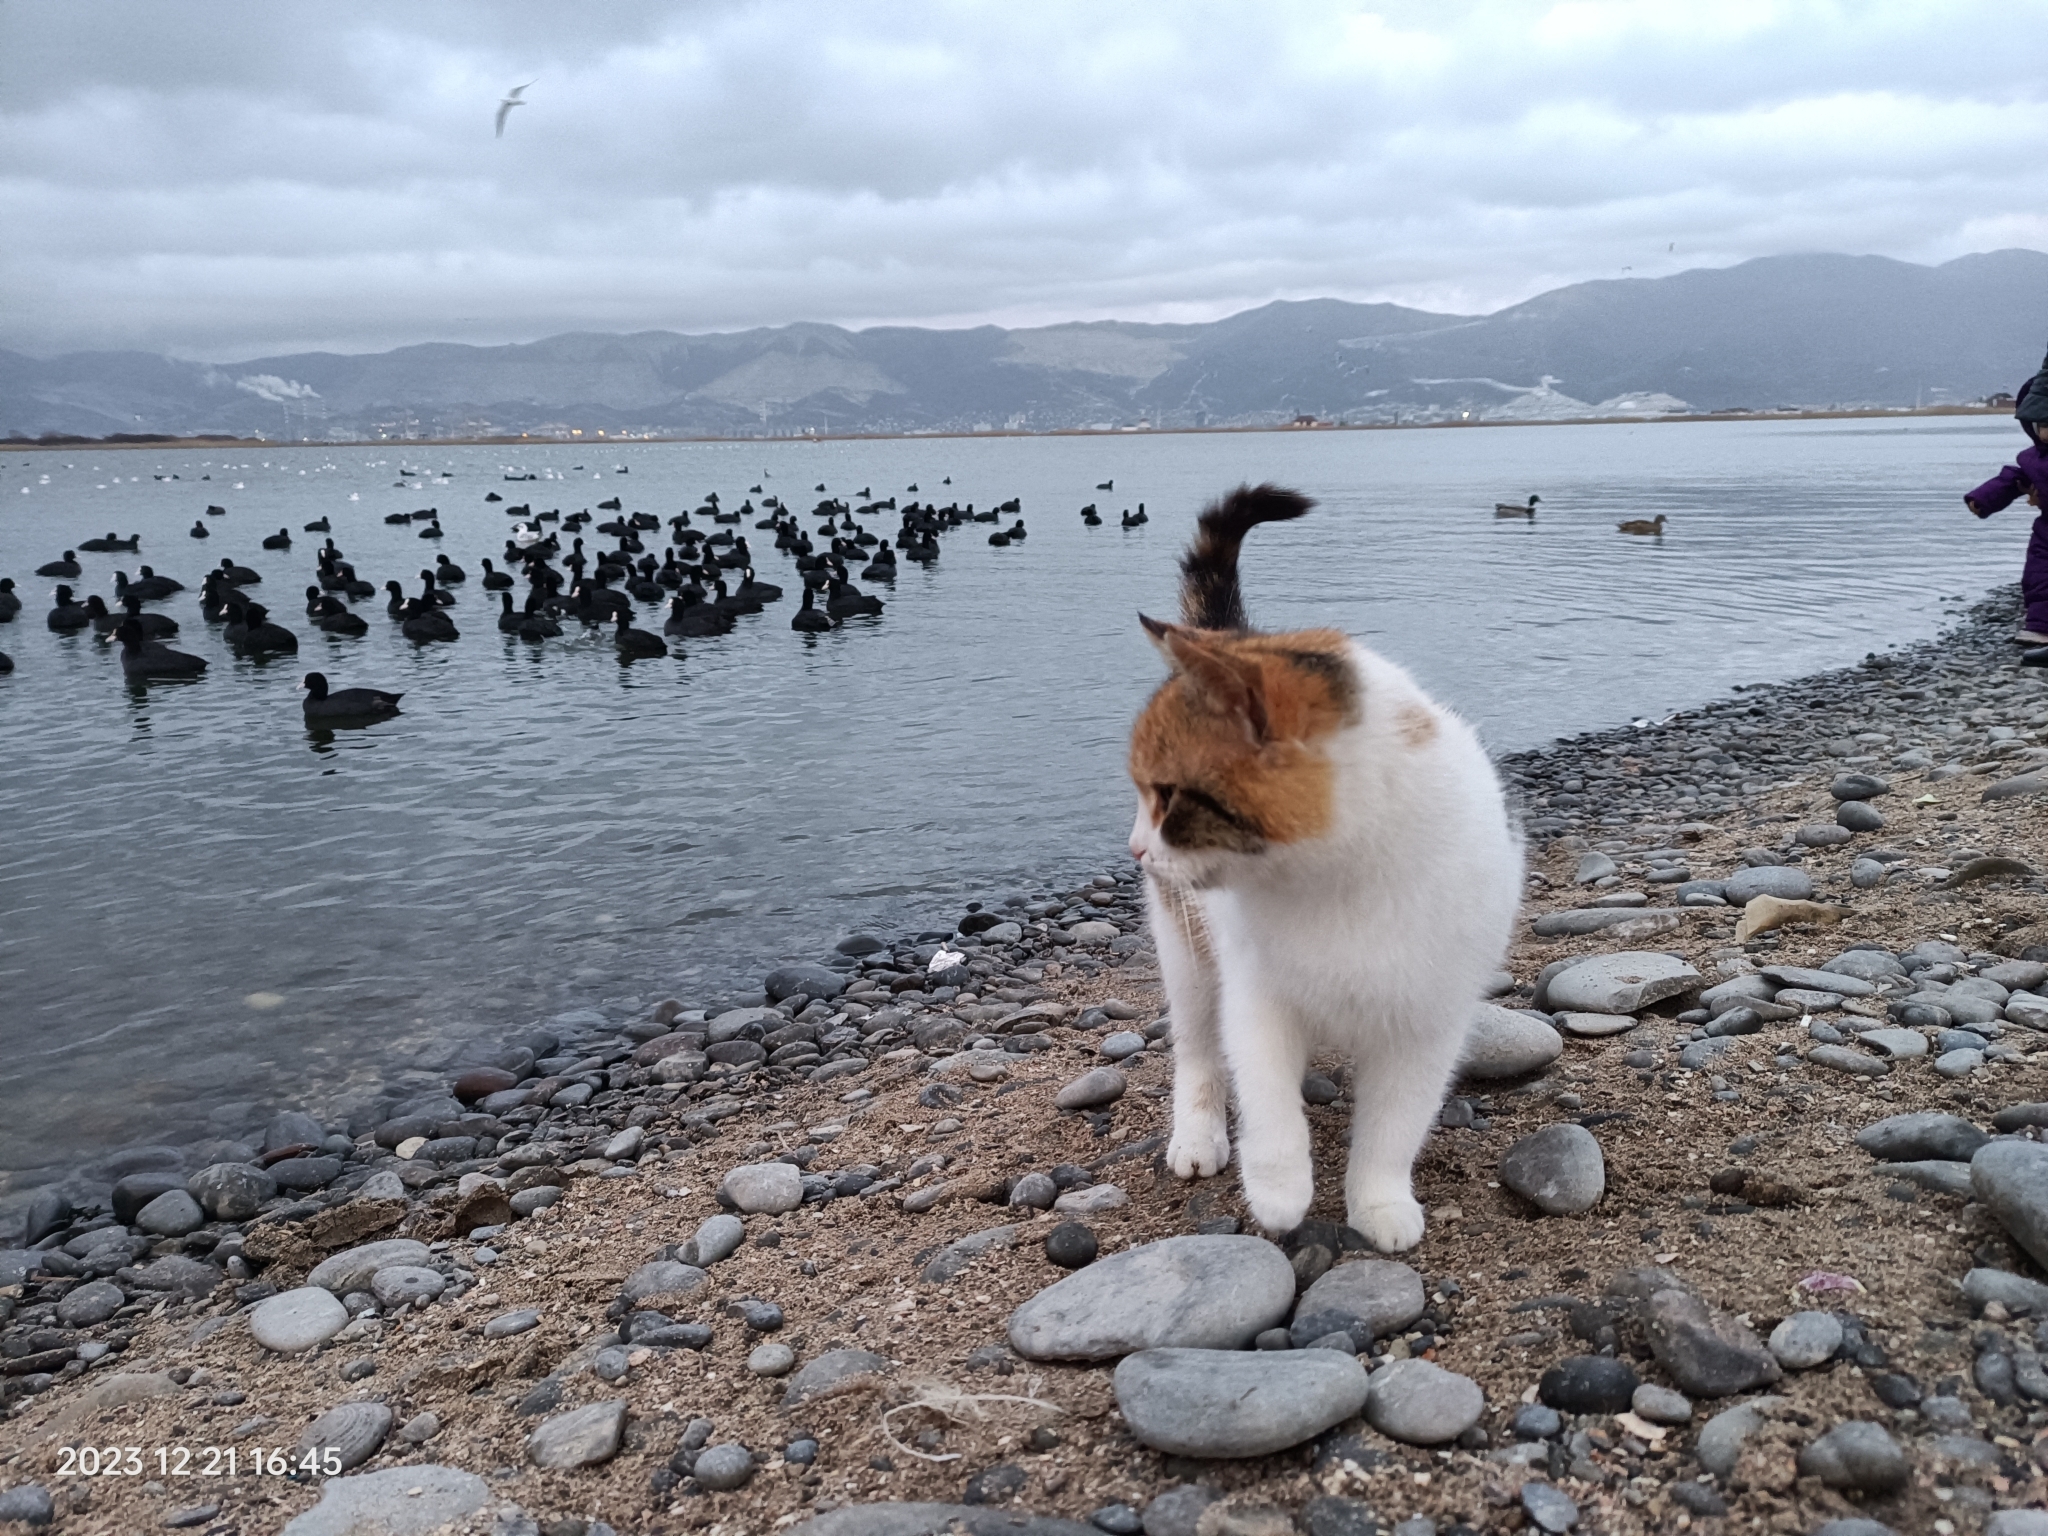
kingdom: Animalia
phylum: Chordata
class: Mammalia
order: Carnivora
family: Felidae
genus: Felis
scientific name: Felis catus
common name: Domestic cat
